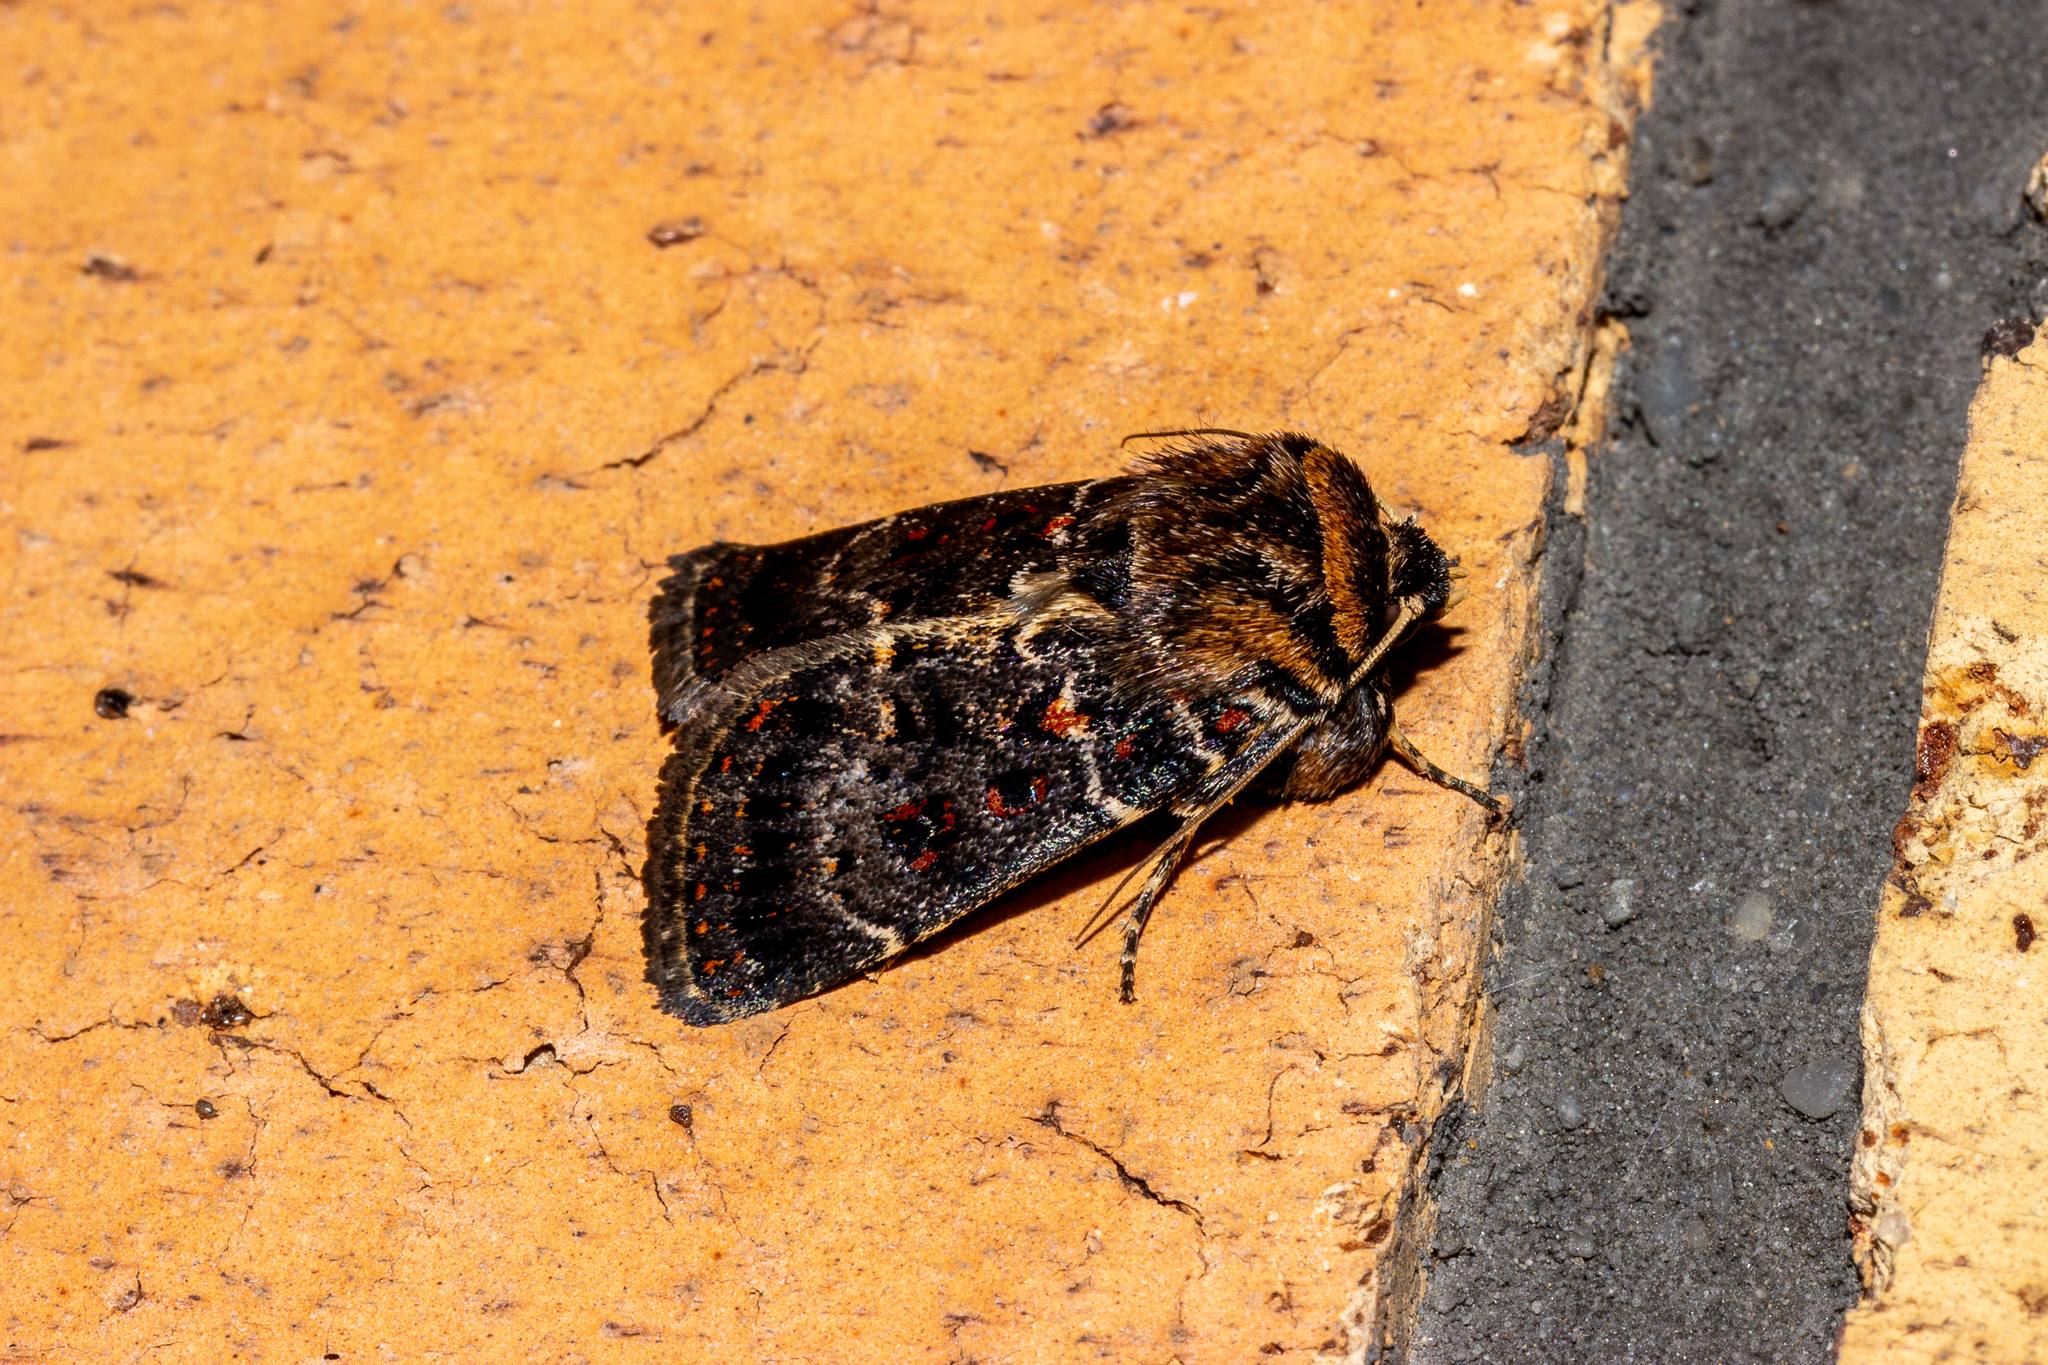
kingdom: Animalia
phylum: Arthropoda
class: Insecta
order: Lepidoptera
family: Noctuidae
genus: Proteuxoa
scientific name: Proteuxoa sanguinipuncta
